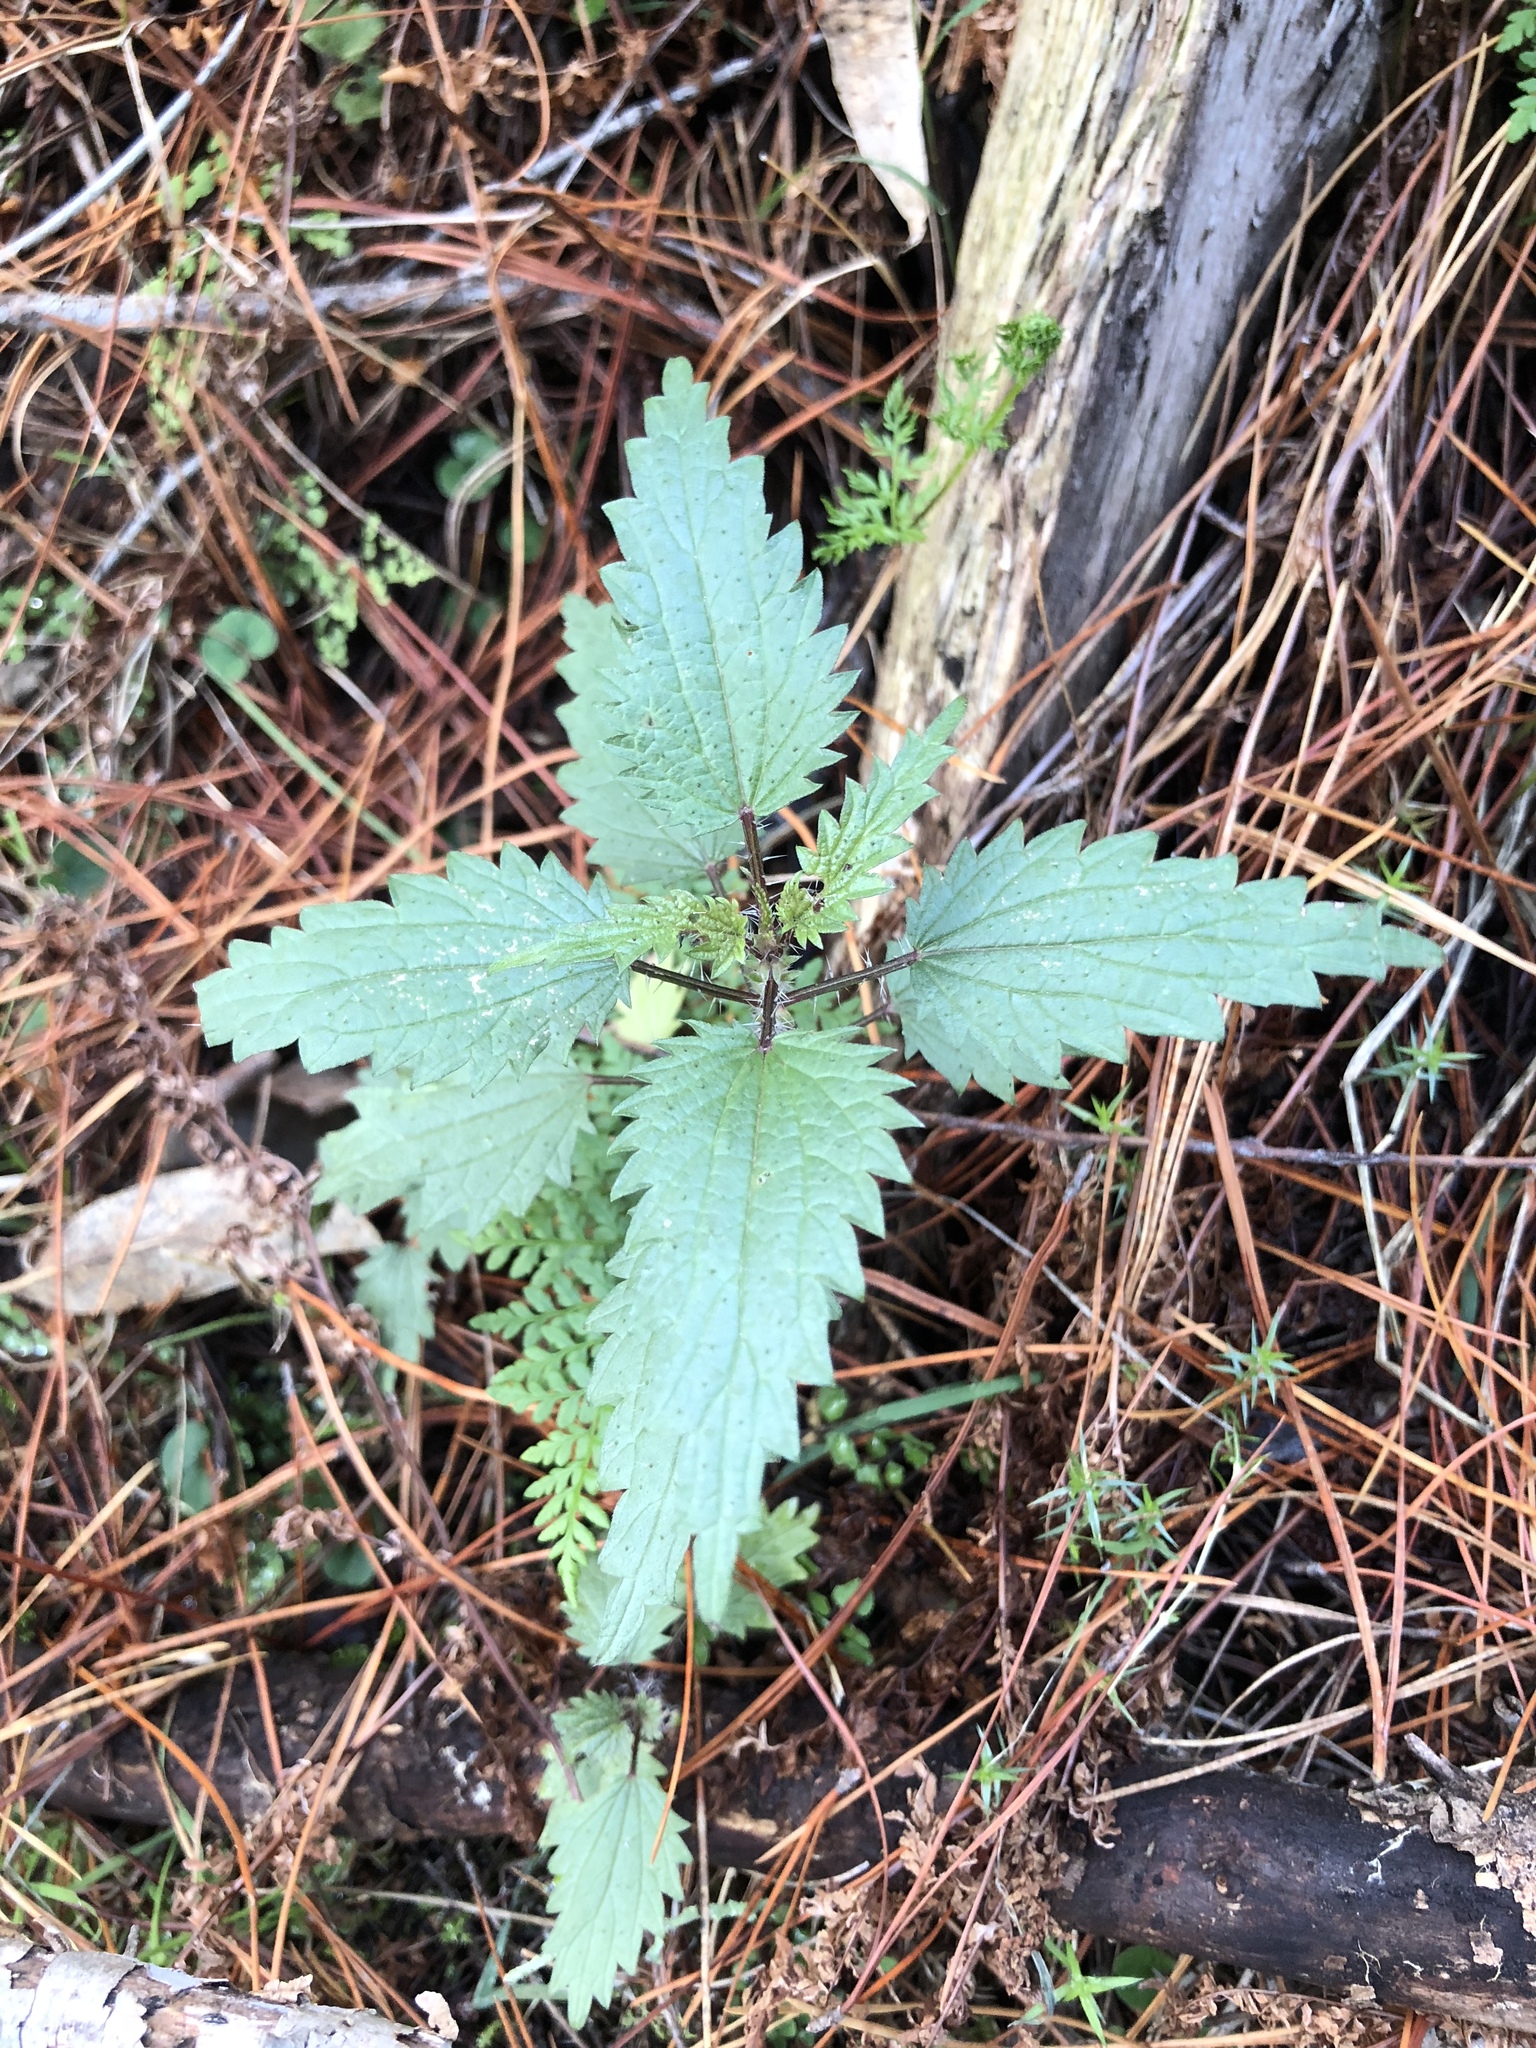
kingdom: Plantae
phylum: Tracheophyta
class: Magnoliopsida
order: Rosales
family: Urticaceae
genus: Urtica
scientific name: Urtica dioica
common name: Common nettle
